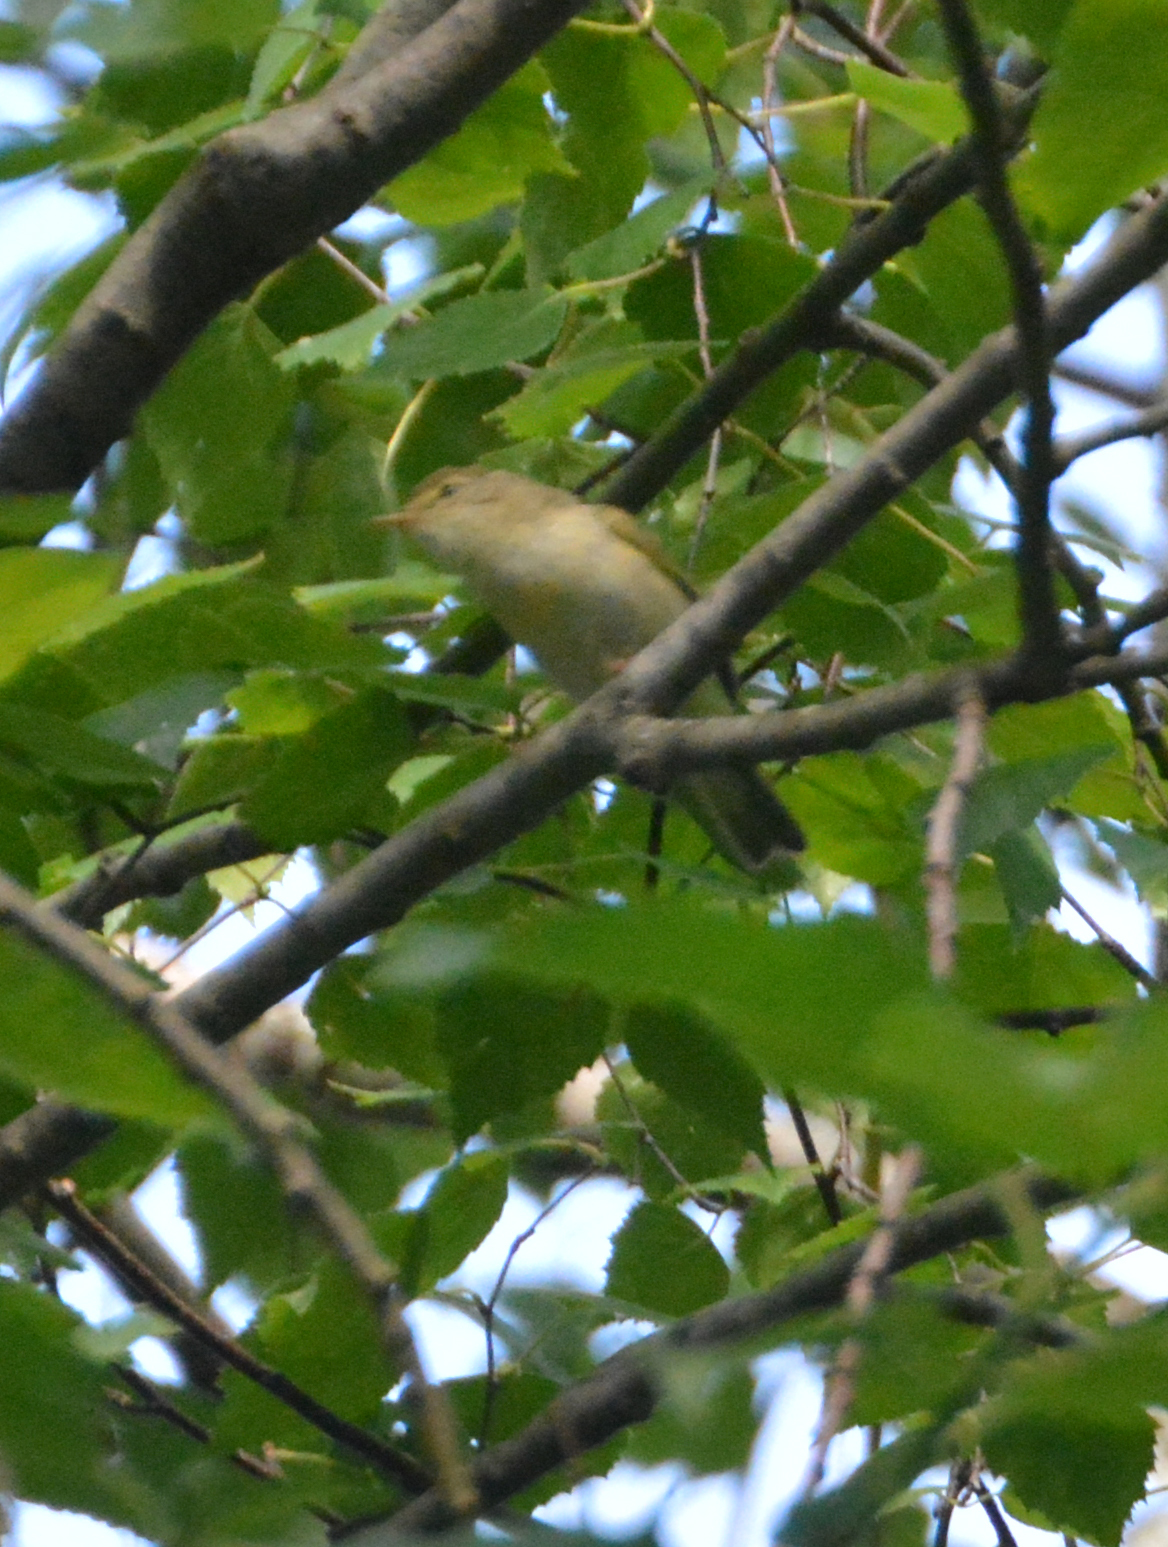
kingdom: Animalia
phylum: Chordata
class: Aves
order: Passeriformes
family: Phylloscopidae
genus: Phylloscopus
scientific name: Phylloscopus trochilus
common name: Willow warbler
